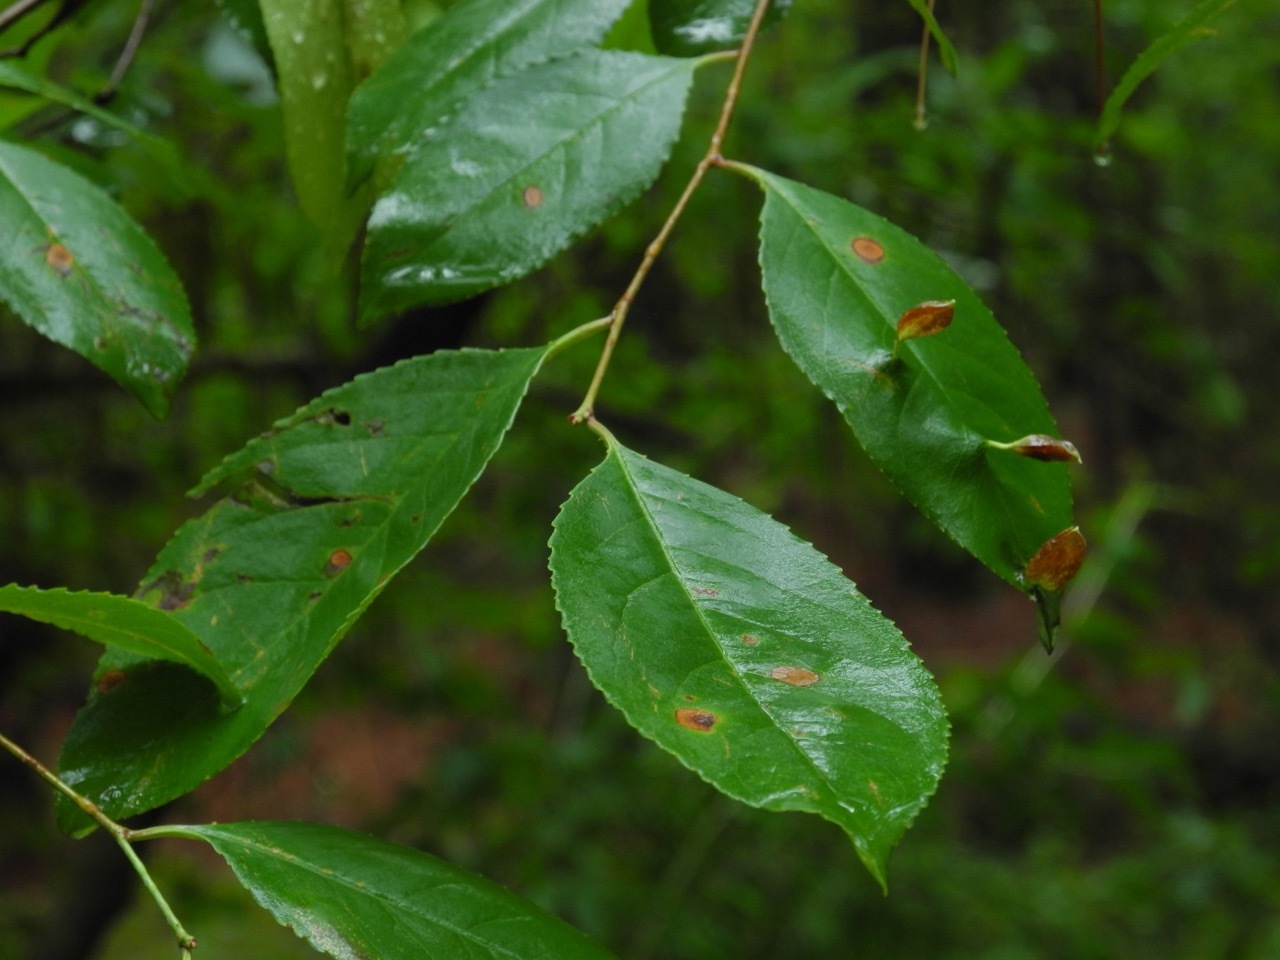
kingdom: Plantae
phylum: Tracheophyta
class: Magnoliopsida
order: Rosales
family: Rosaceae
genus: Prunus
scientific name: Prunus serotina
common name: Black cherry
